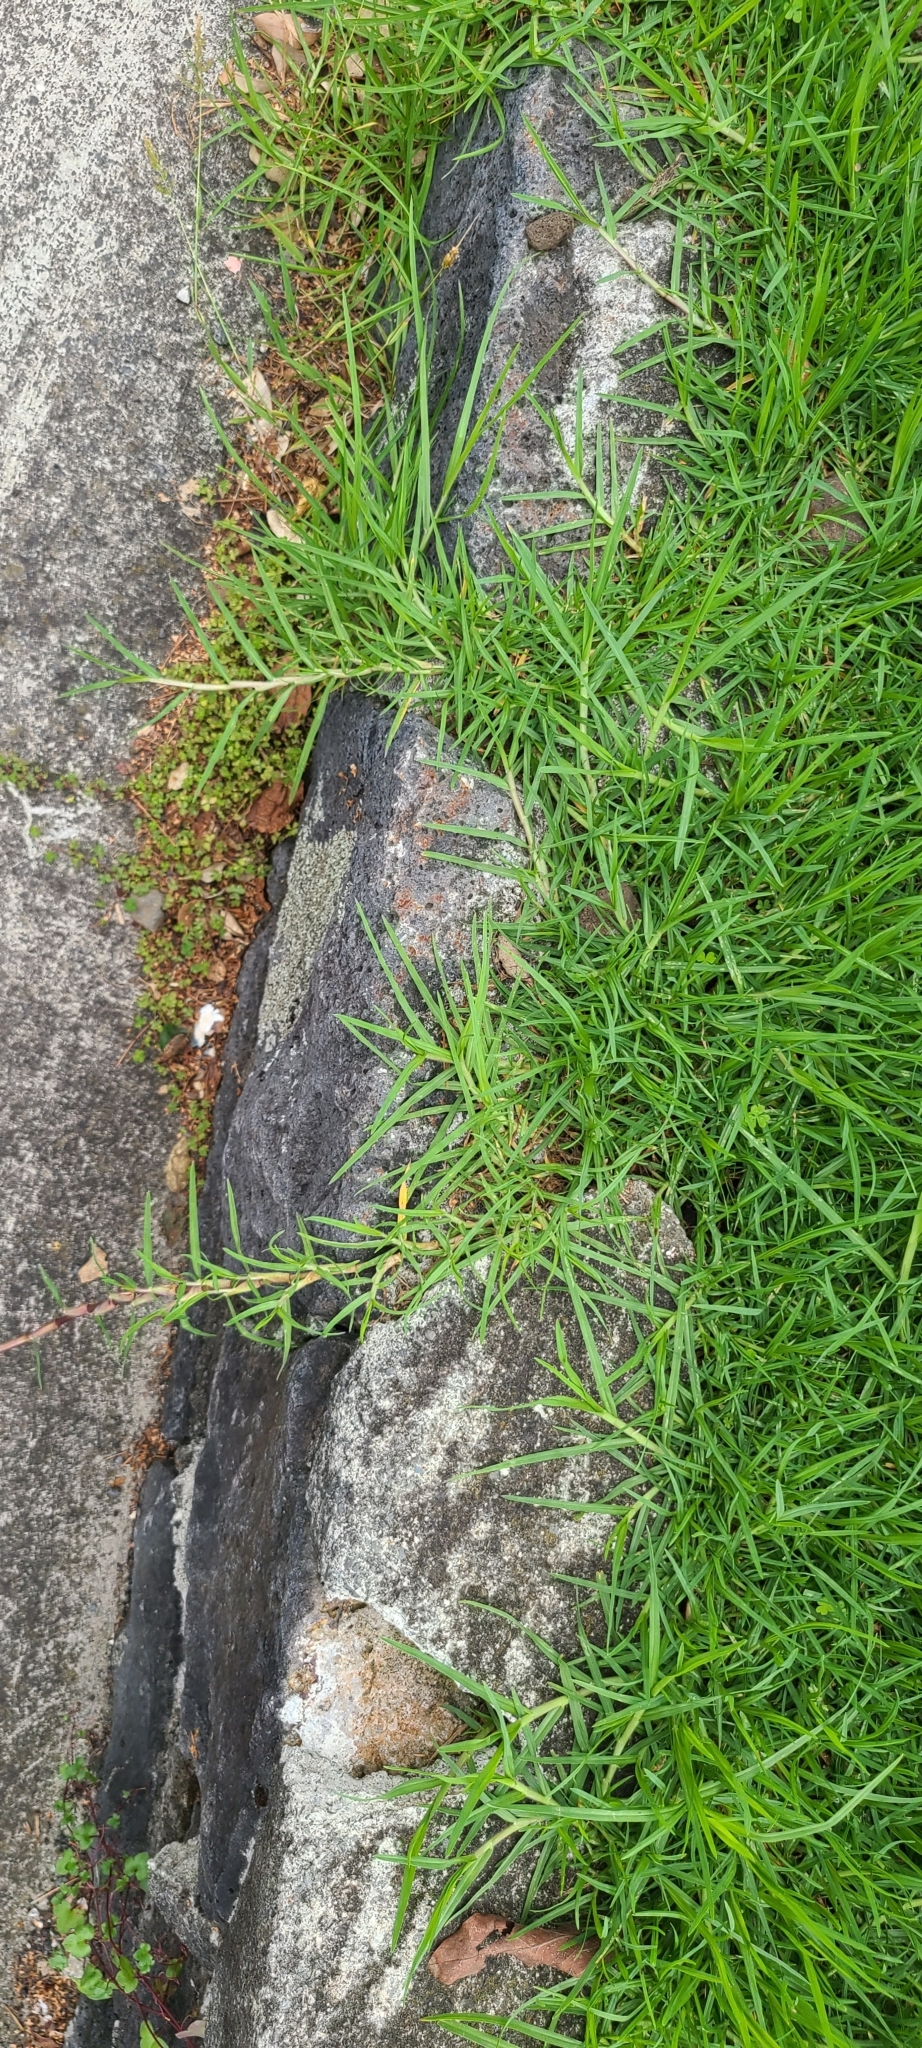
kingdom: Plantae
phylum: Tracheophyta
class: Liliopsida
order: Poales
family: Poaceae
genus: Cenchrus
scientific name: Cenchrus clandestinus
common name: Kikuyugrass
